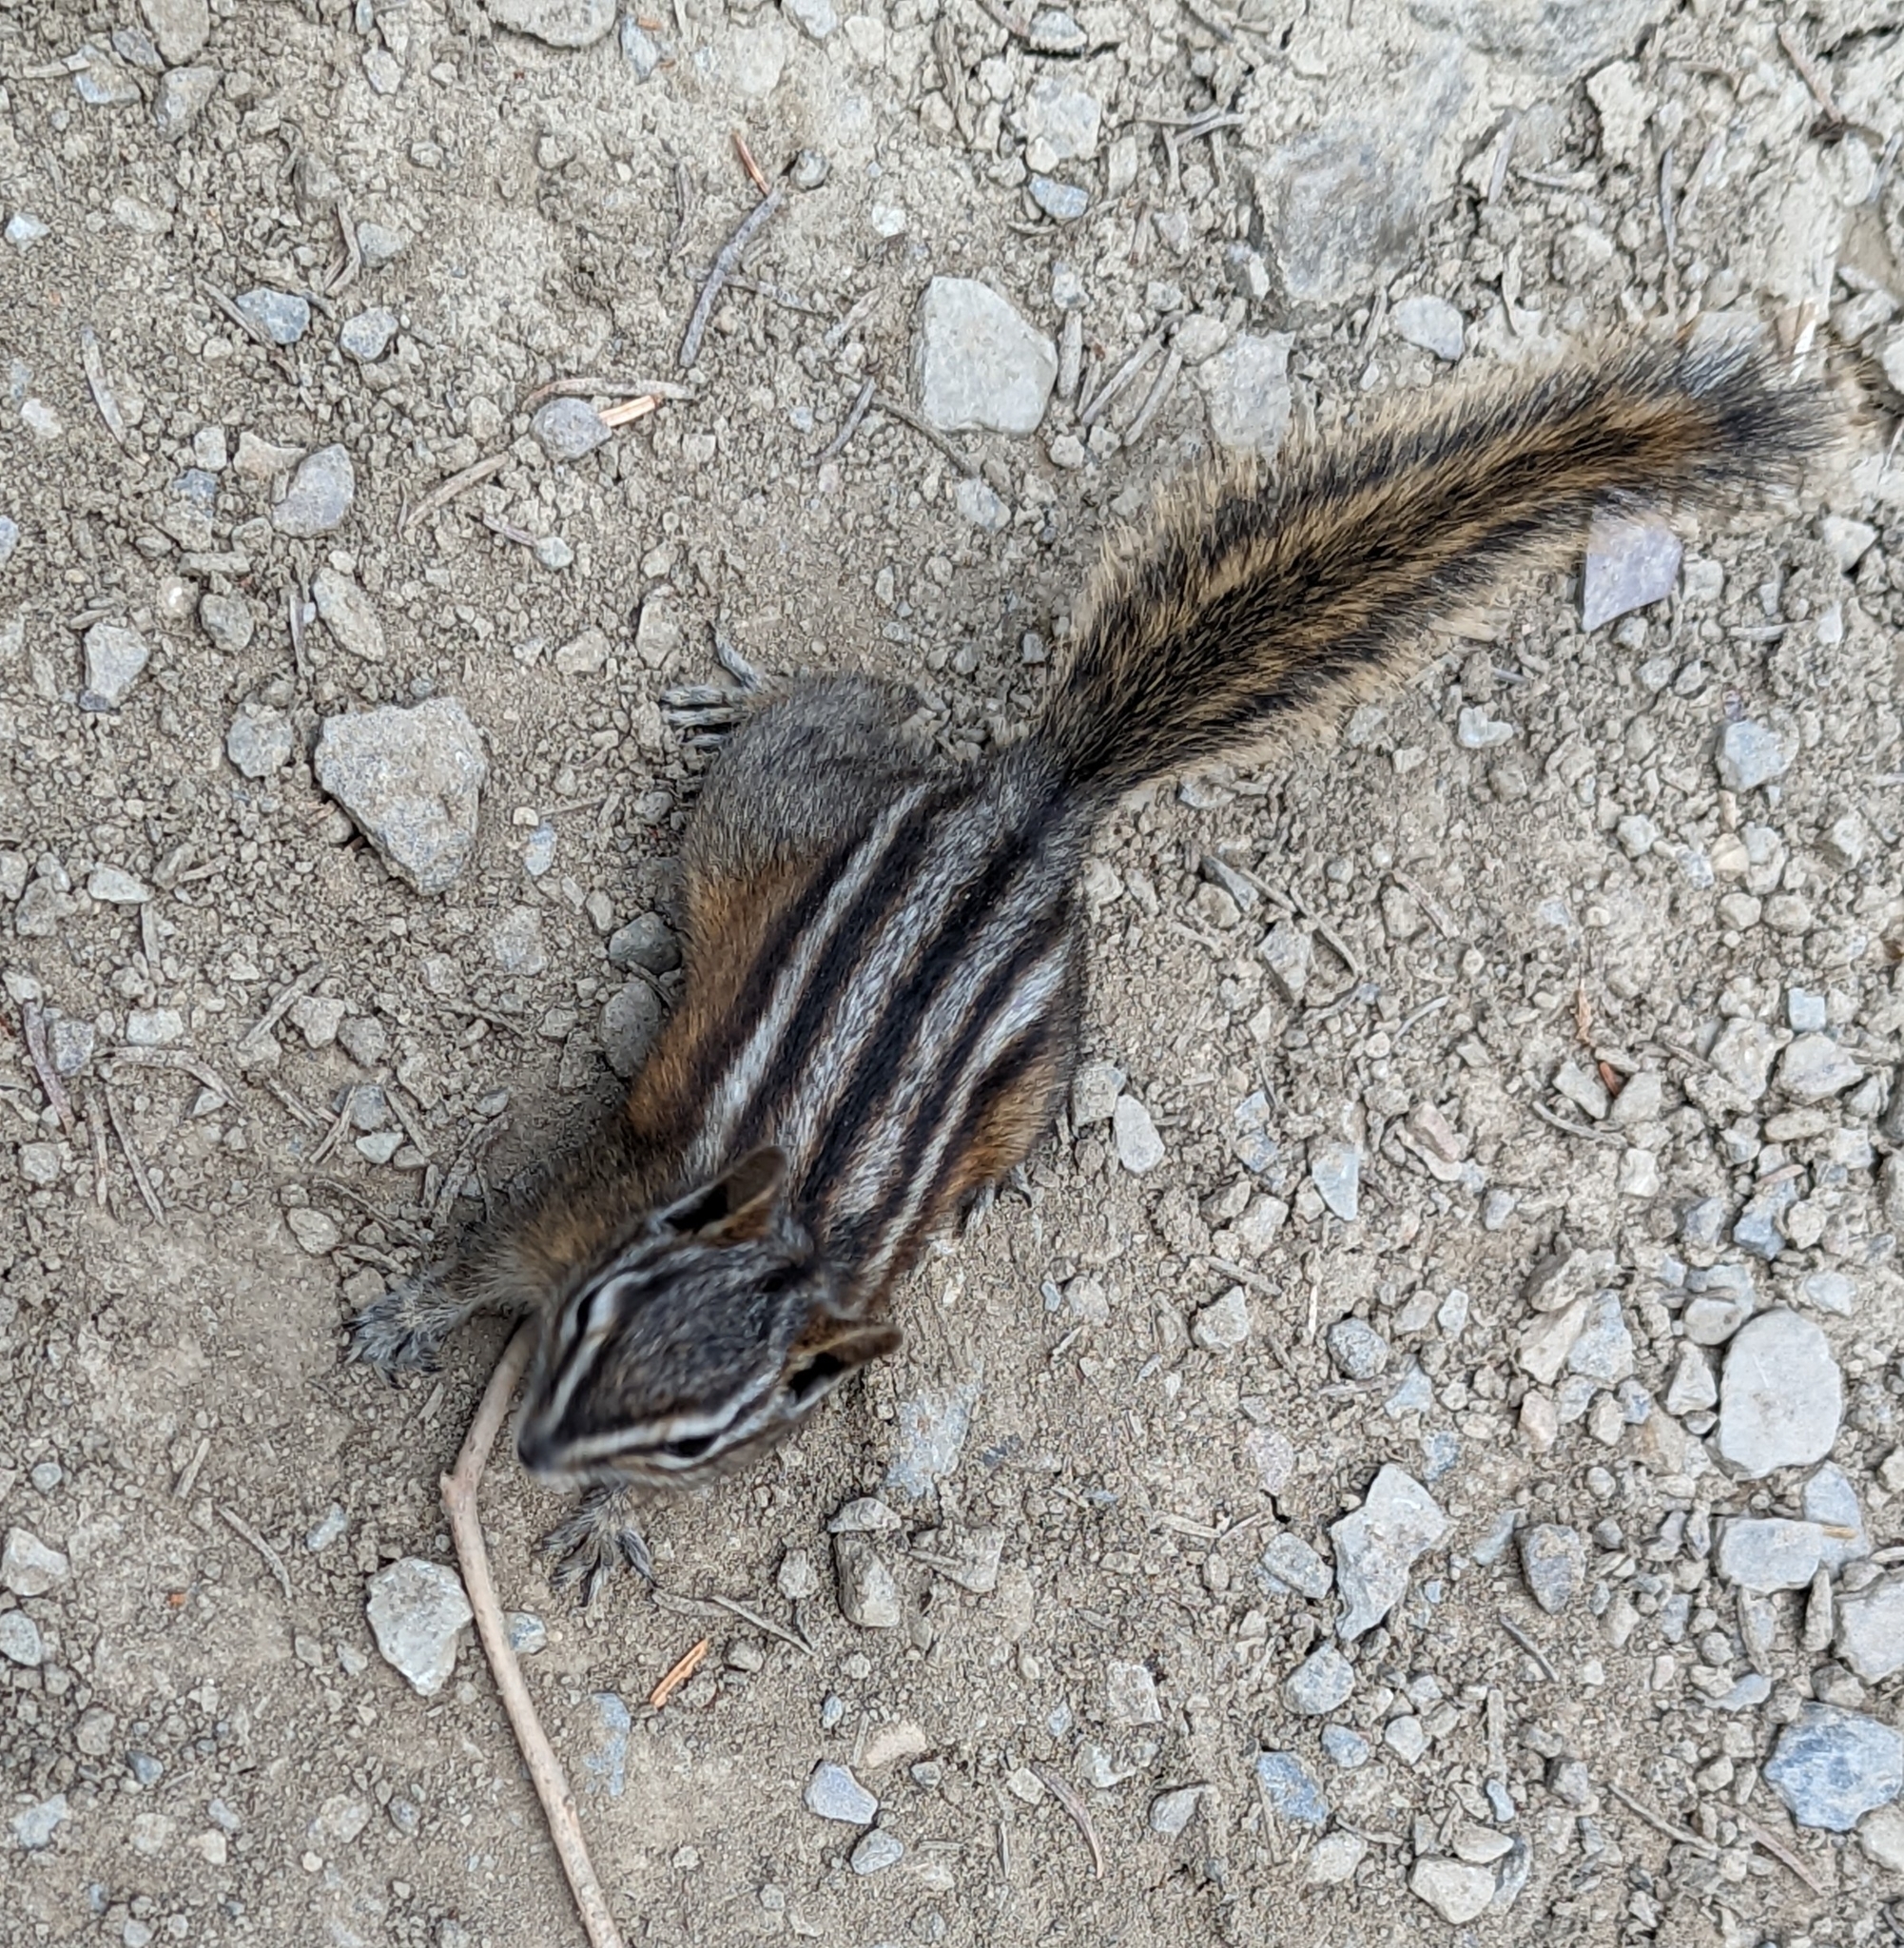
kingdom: Animalia
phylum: Chordata
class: Mammalia
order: Rodentia
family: Sciuridae
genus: Tamias
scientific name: Tamias amoenus
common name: Yellow-pine chipmunk
